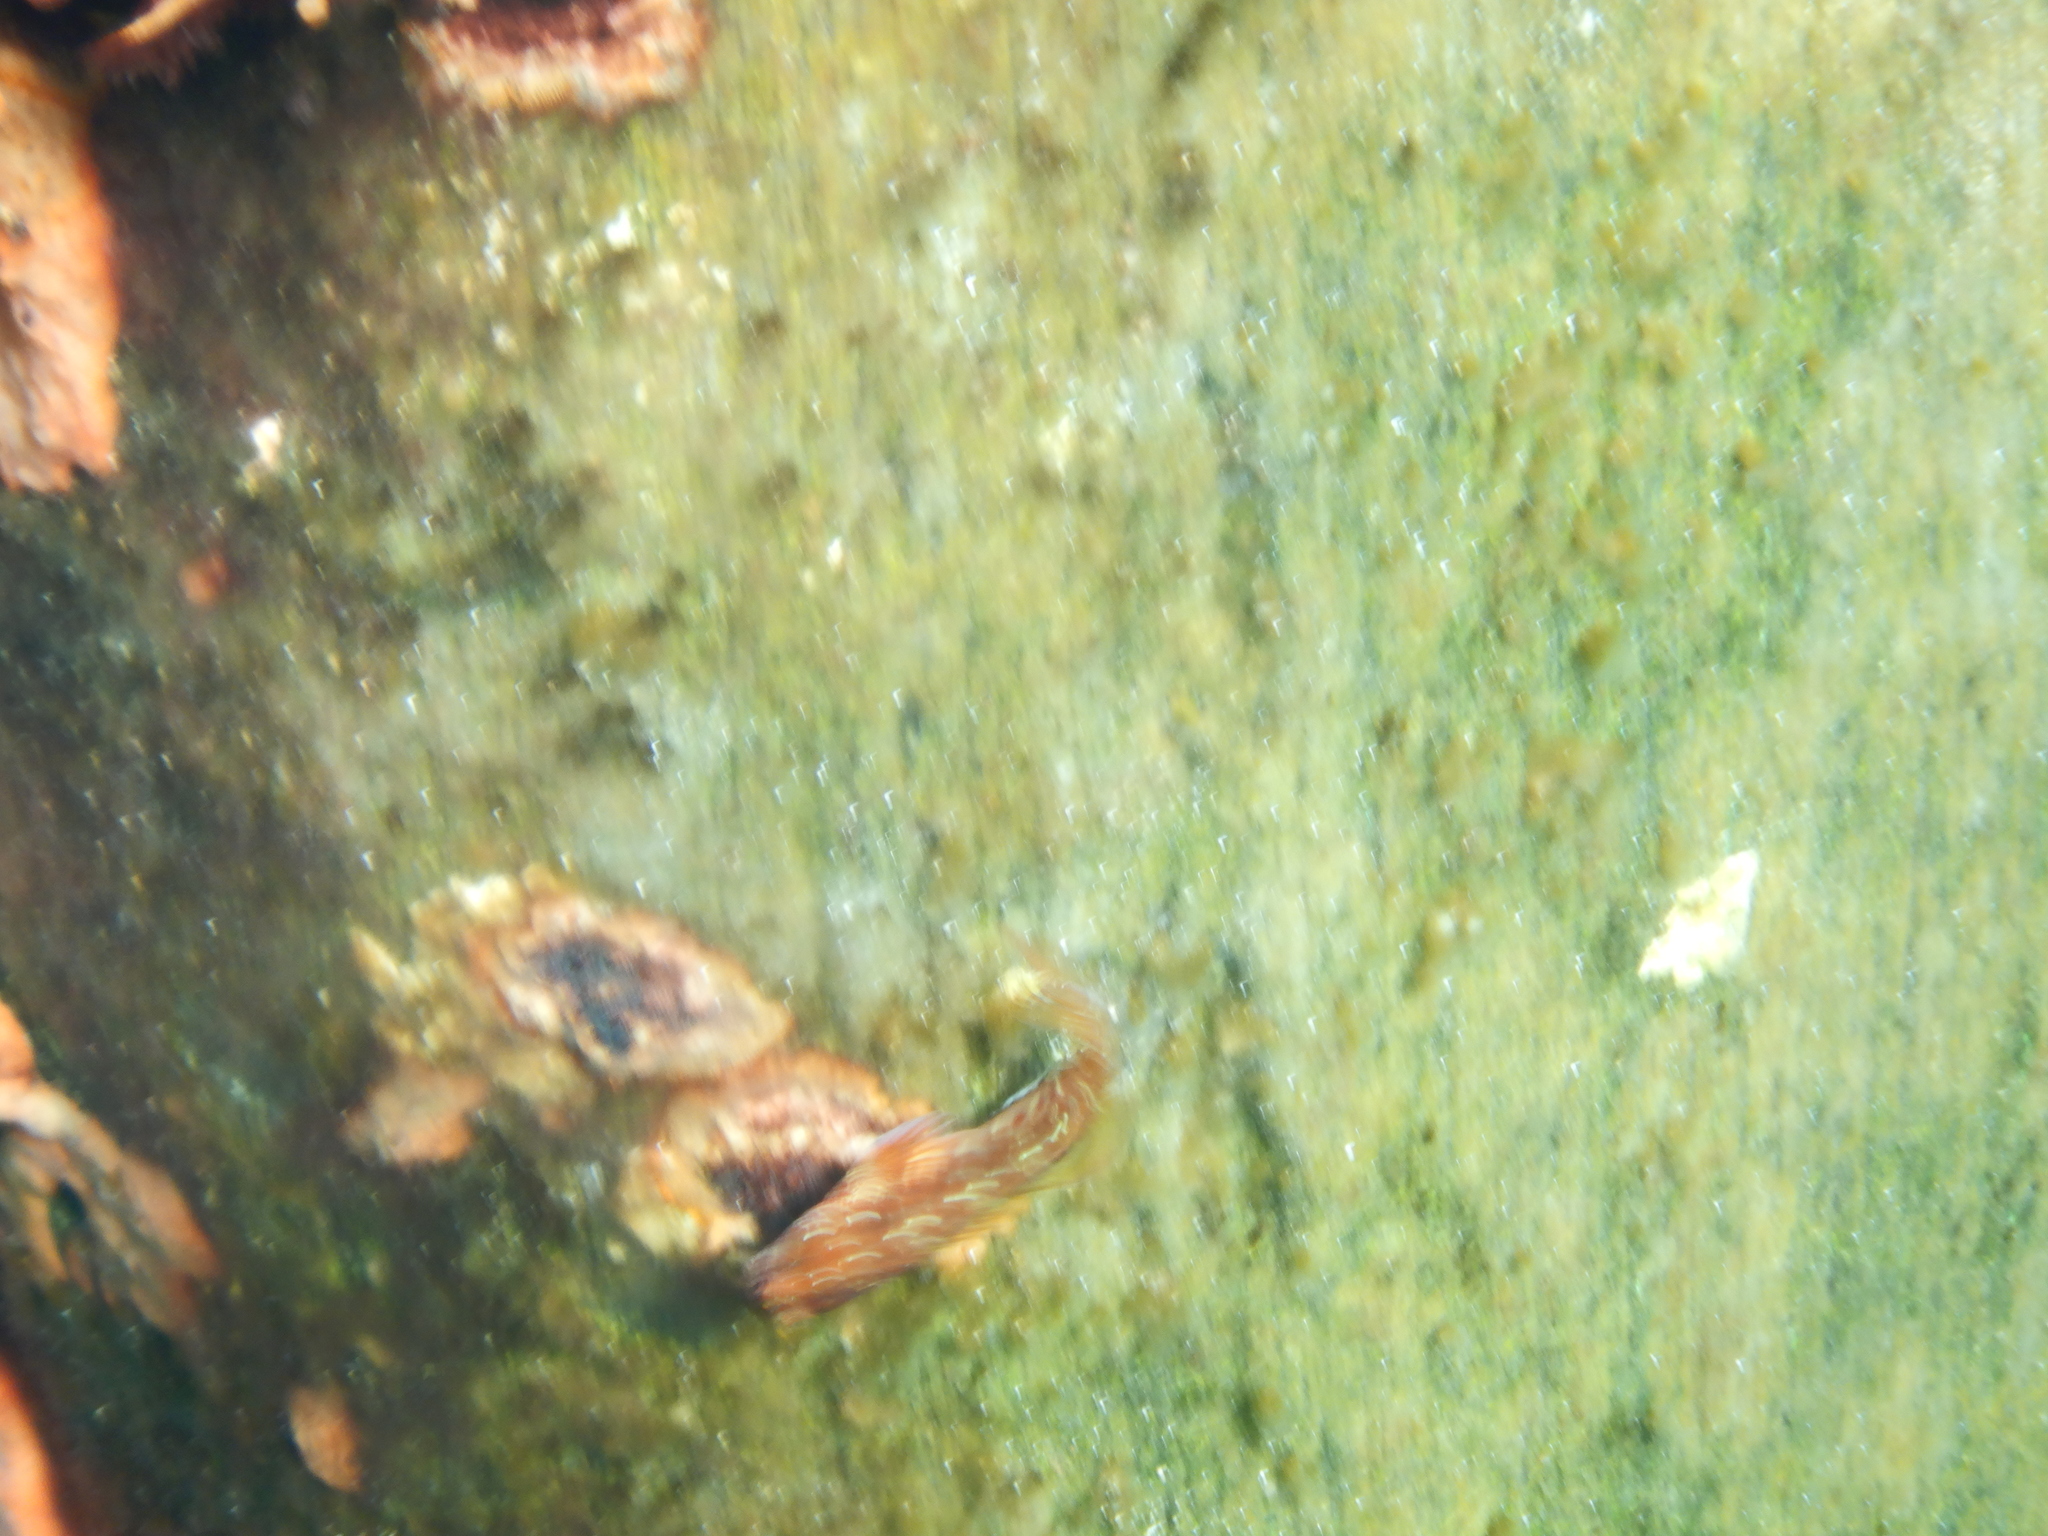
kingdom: Animalia
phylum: Chordata
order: Perciformes
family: Blenniidae
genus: Parablennius
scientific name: Parablennius postoculomaculatus
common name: False tasmanian blenny
